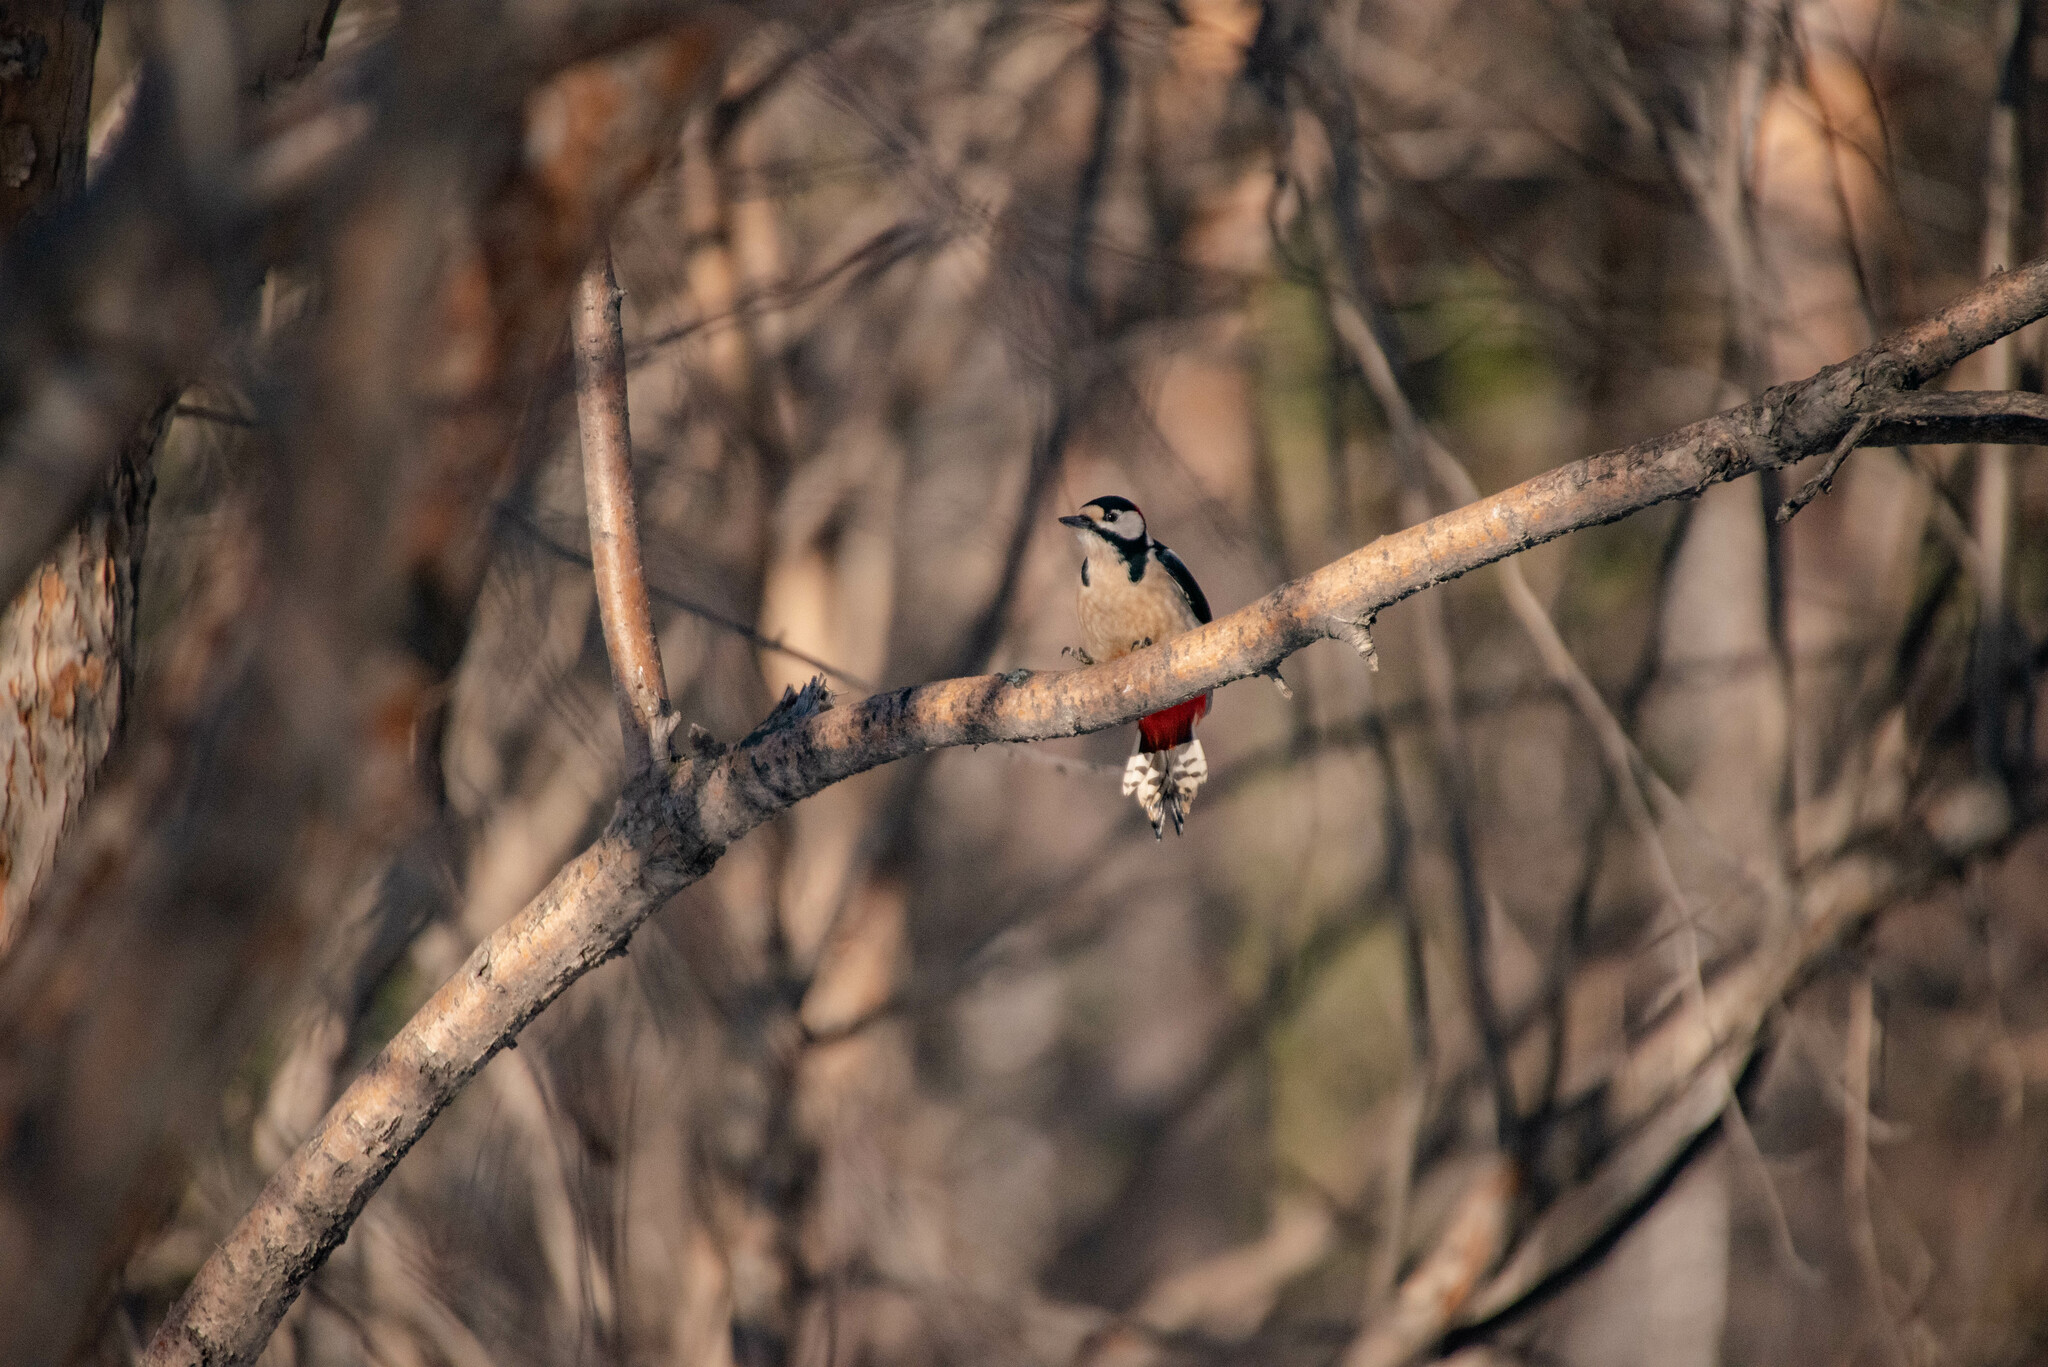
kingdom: Animalia
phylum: Chordata
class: Aves
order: Piciformes
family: Picidae
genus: Dendrocopos
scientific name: Dendrocopos major
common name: Great spotted woodpecker
